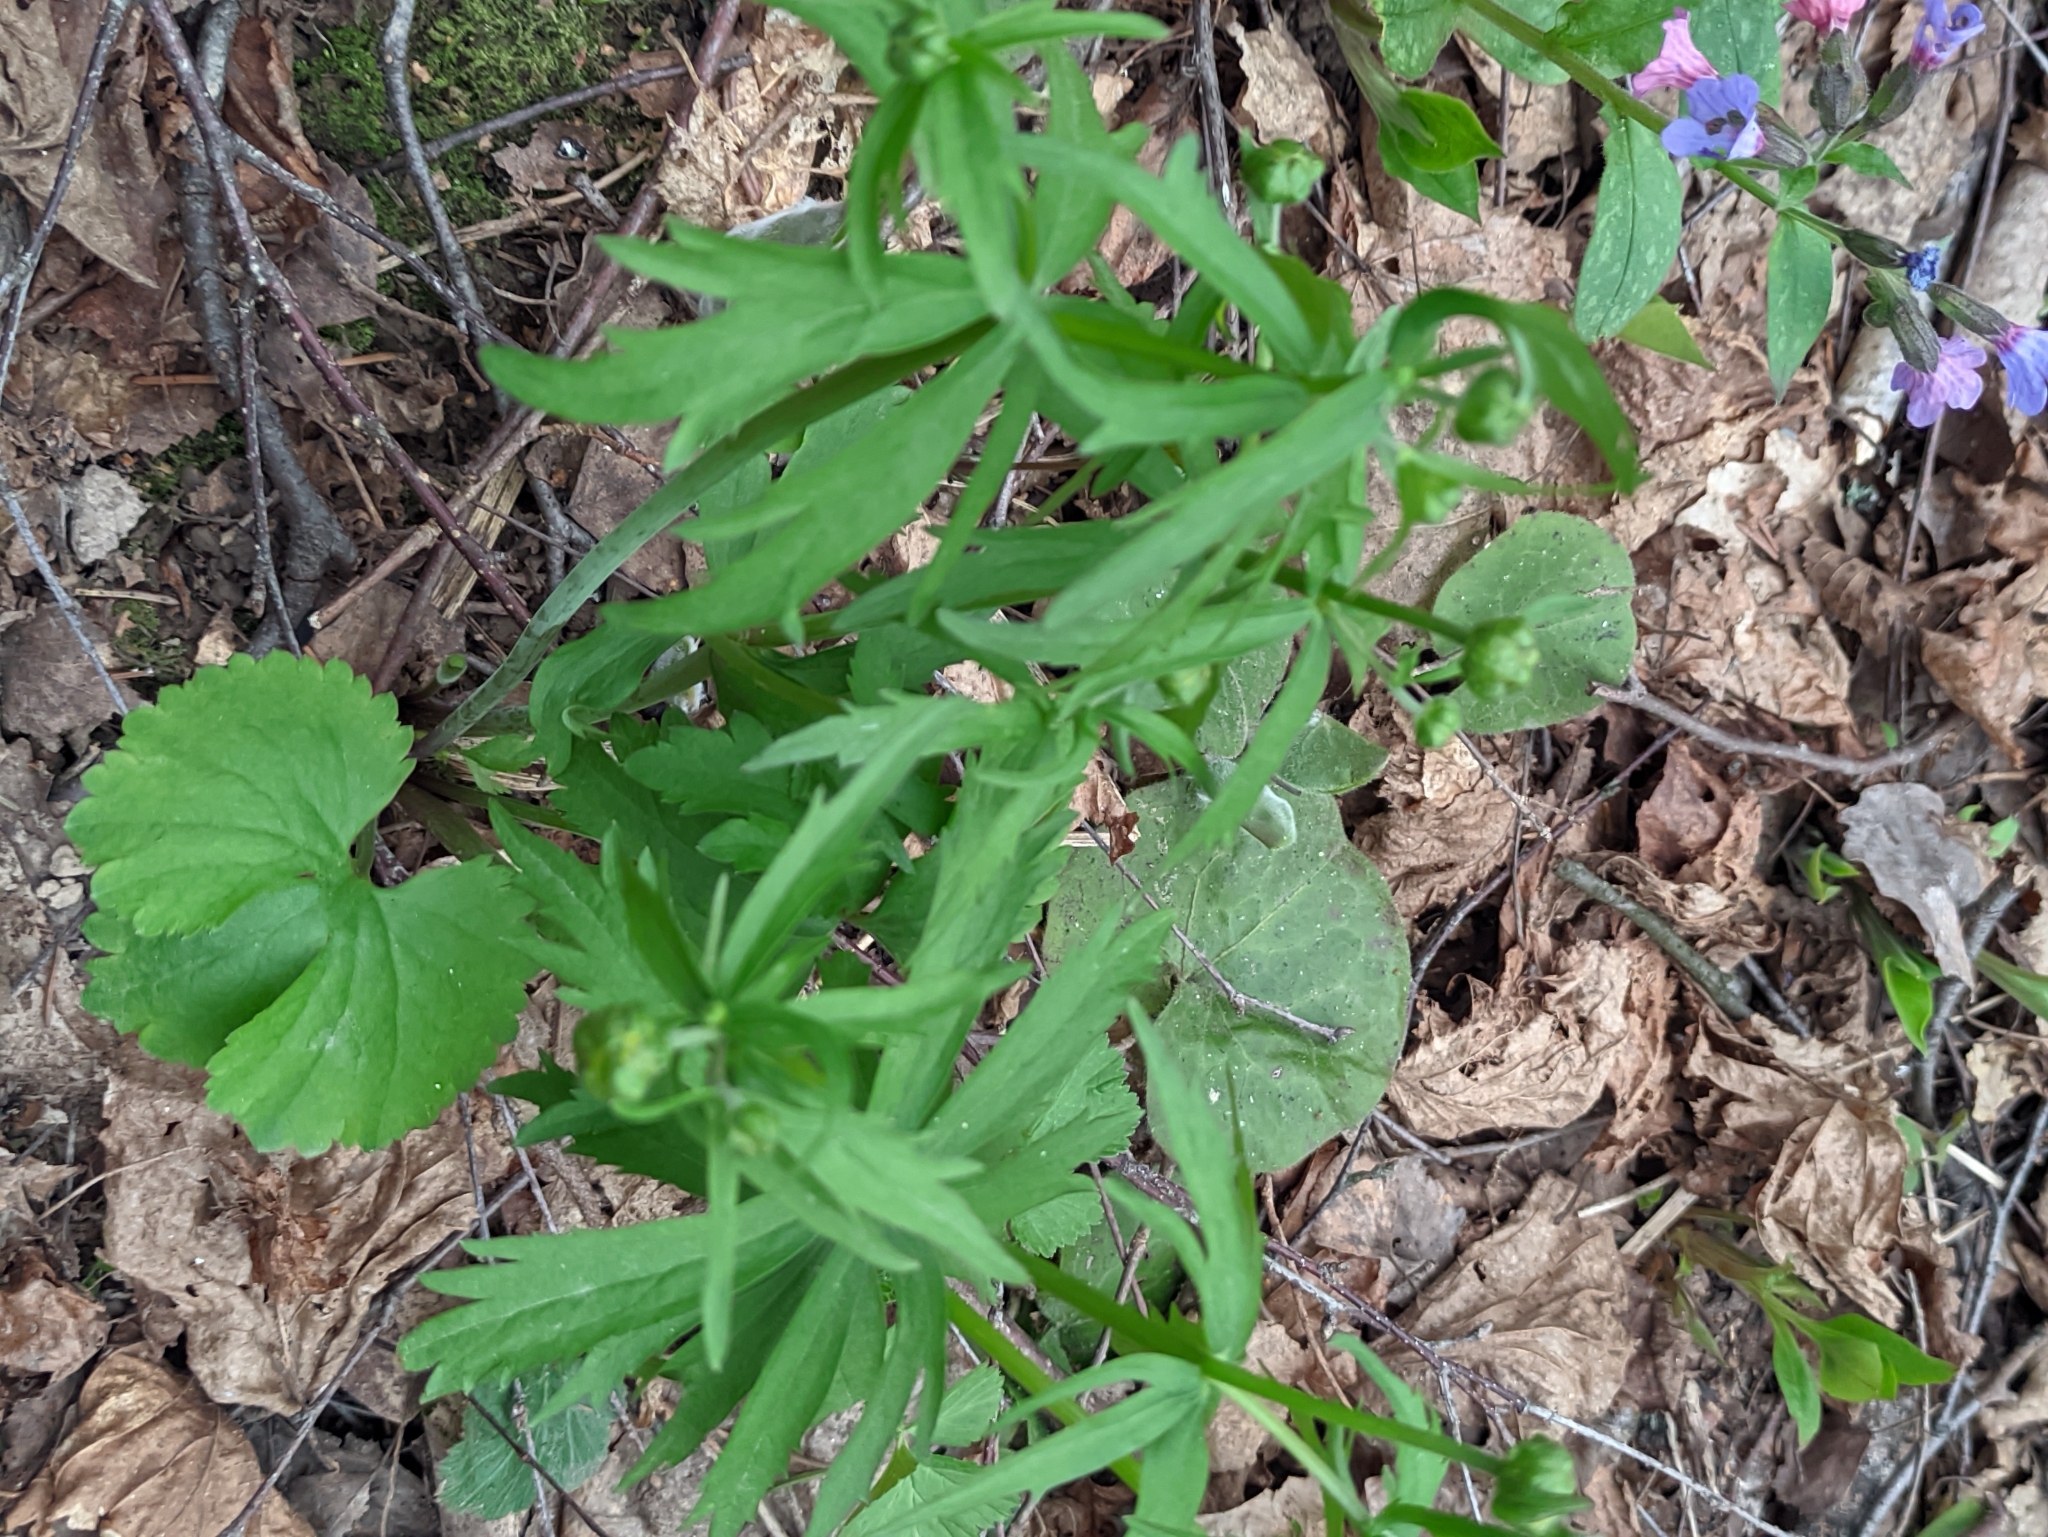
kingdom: Plantae
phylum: Tracheophyta
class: Magnoliopsida
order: Ranunculales
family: Ranunculaceae
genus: Ranunculus
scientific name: Ranunculus cassubicus
